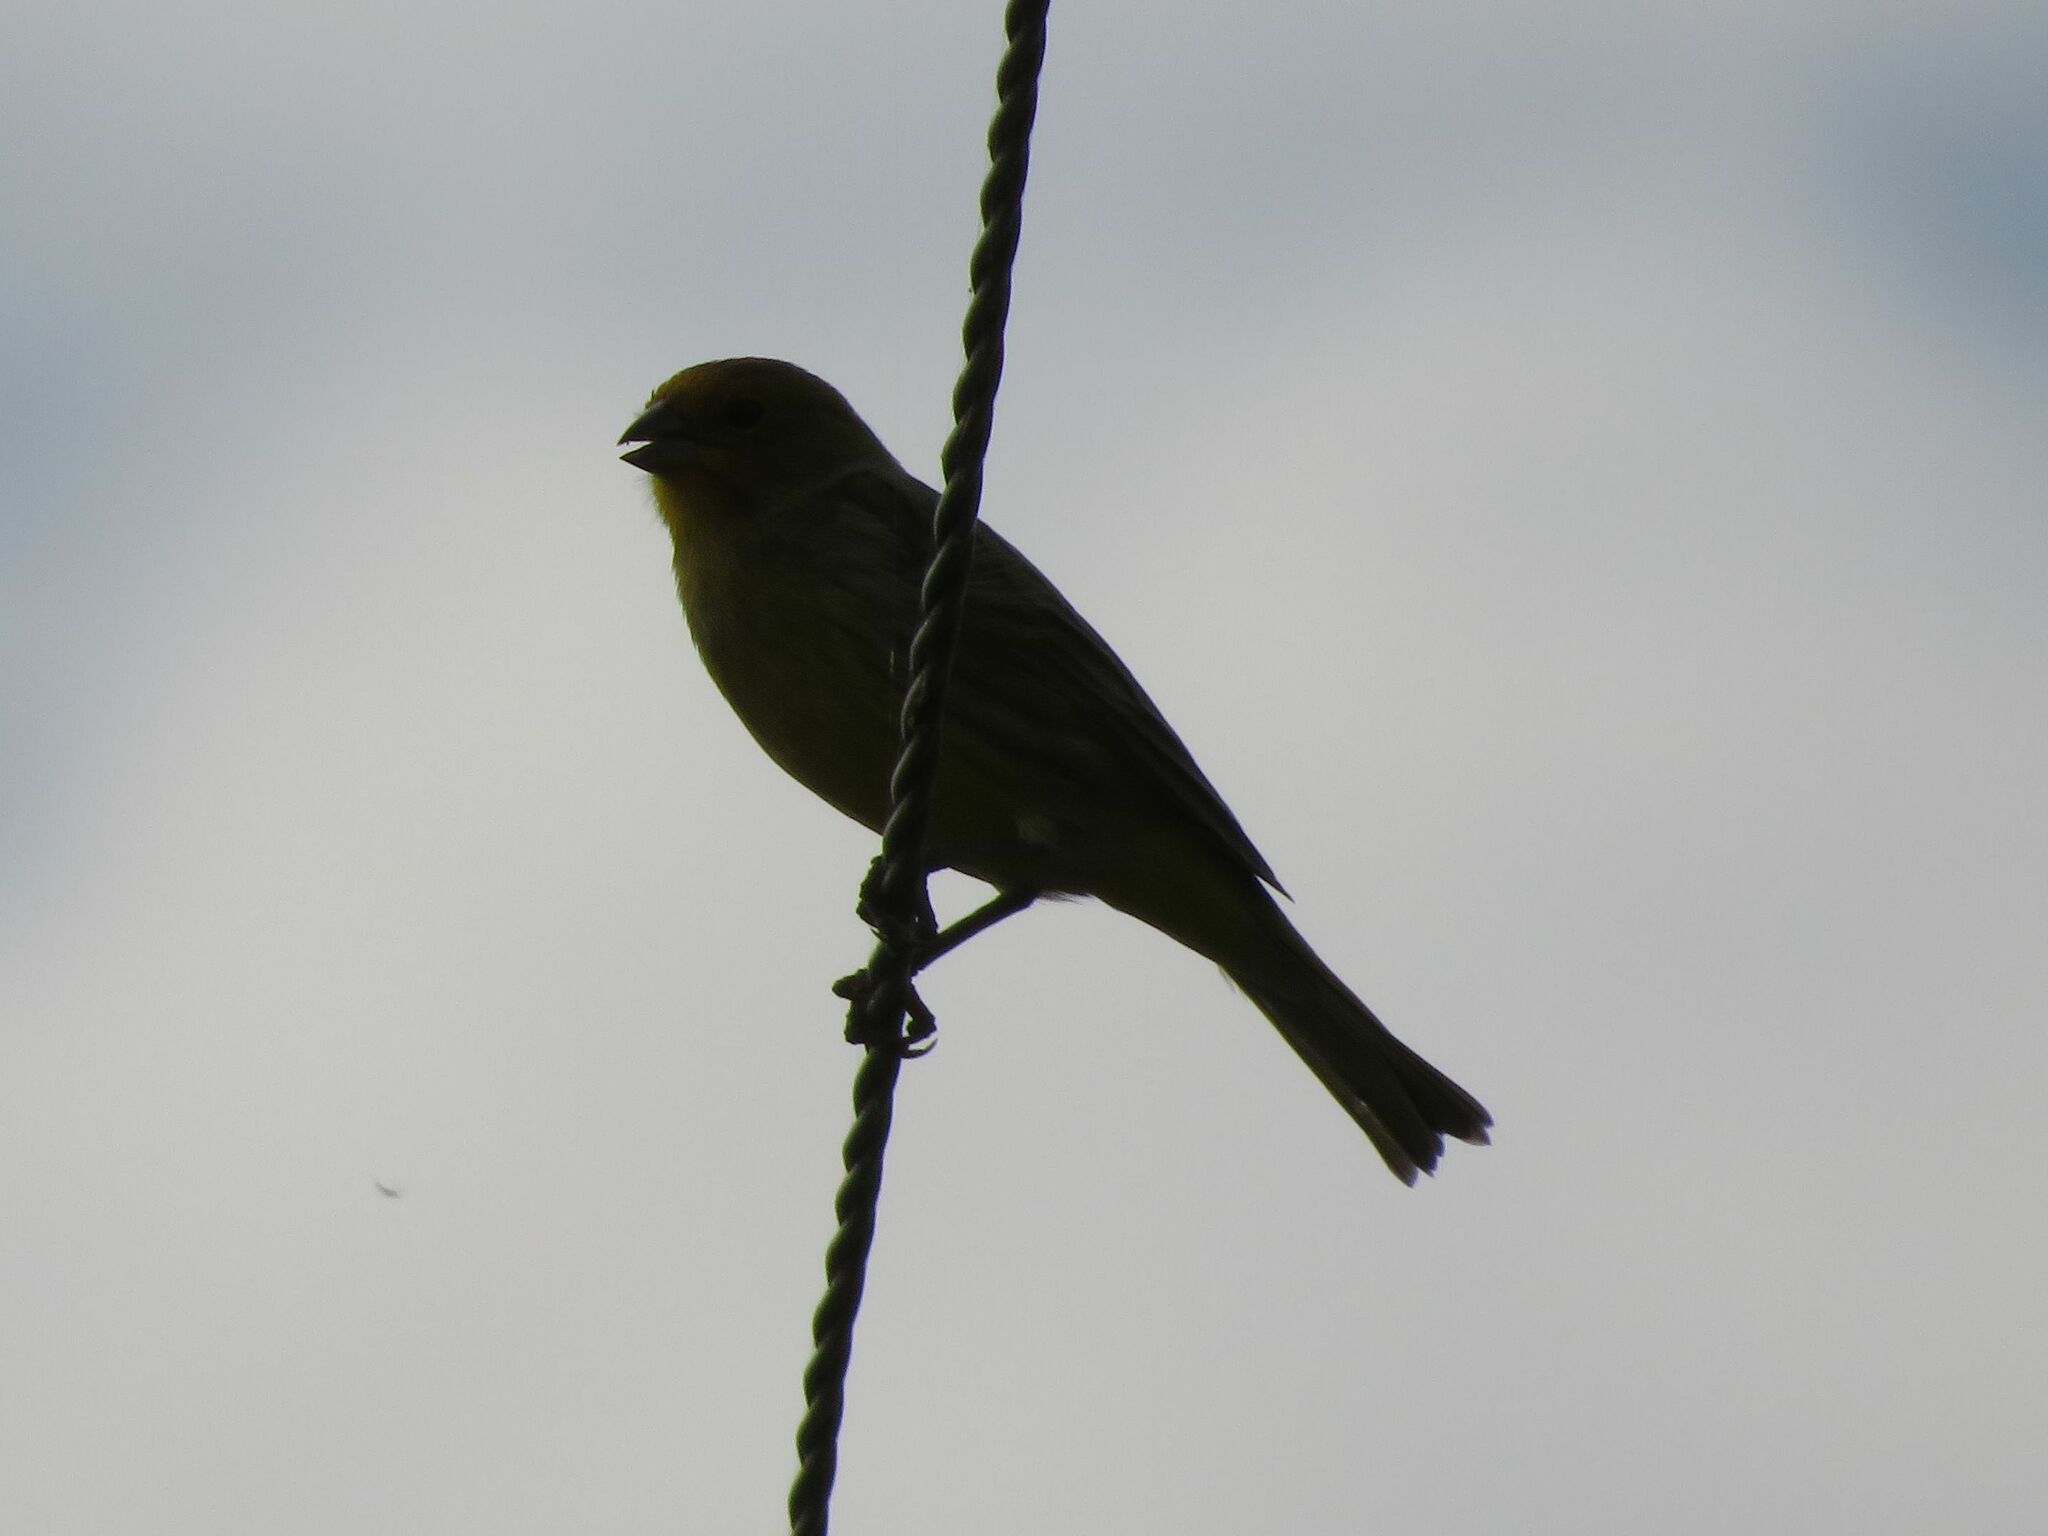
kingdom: Animalia
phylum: Chordata
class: Aves
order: Passeriformes
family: Thraupidae
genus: Sicalis
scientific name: Sicalis flaveola
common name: Saffron finch
